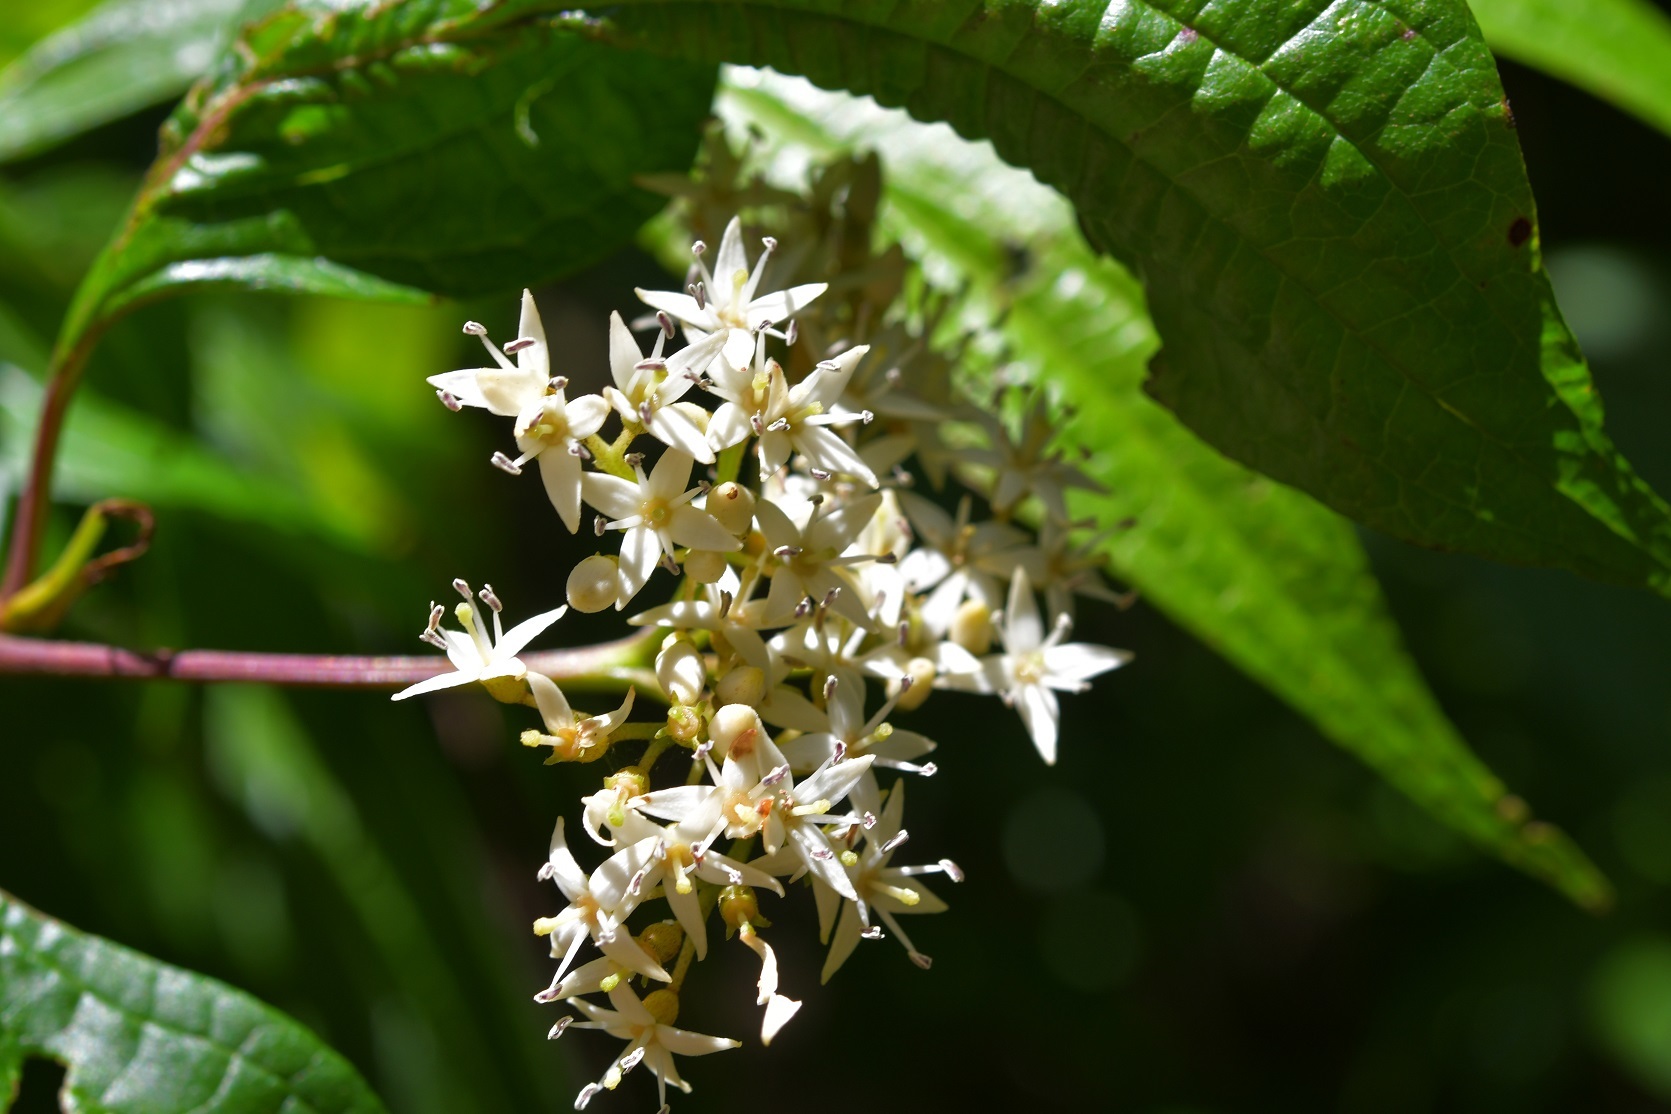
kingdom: Plantae
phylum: Tracheophyta
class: Magnoliopsida
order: Cornales
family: Cornaceae
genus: Cornus
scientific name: Cornus excelsa
